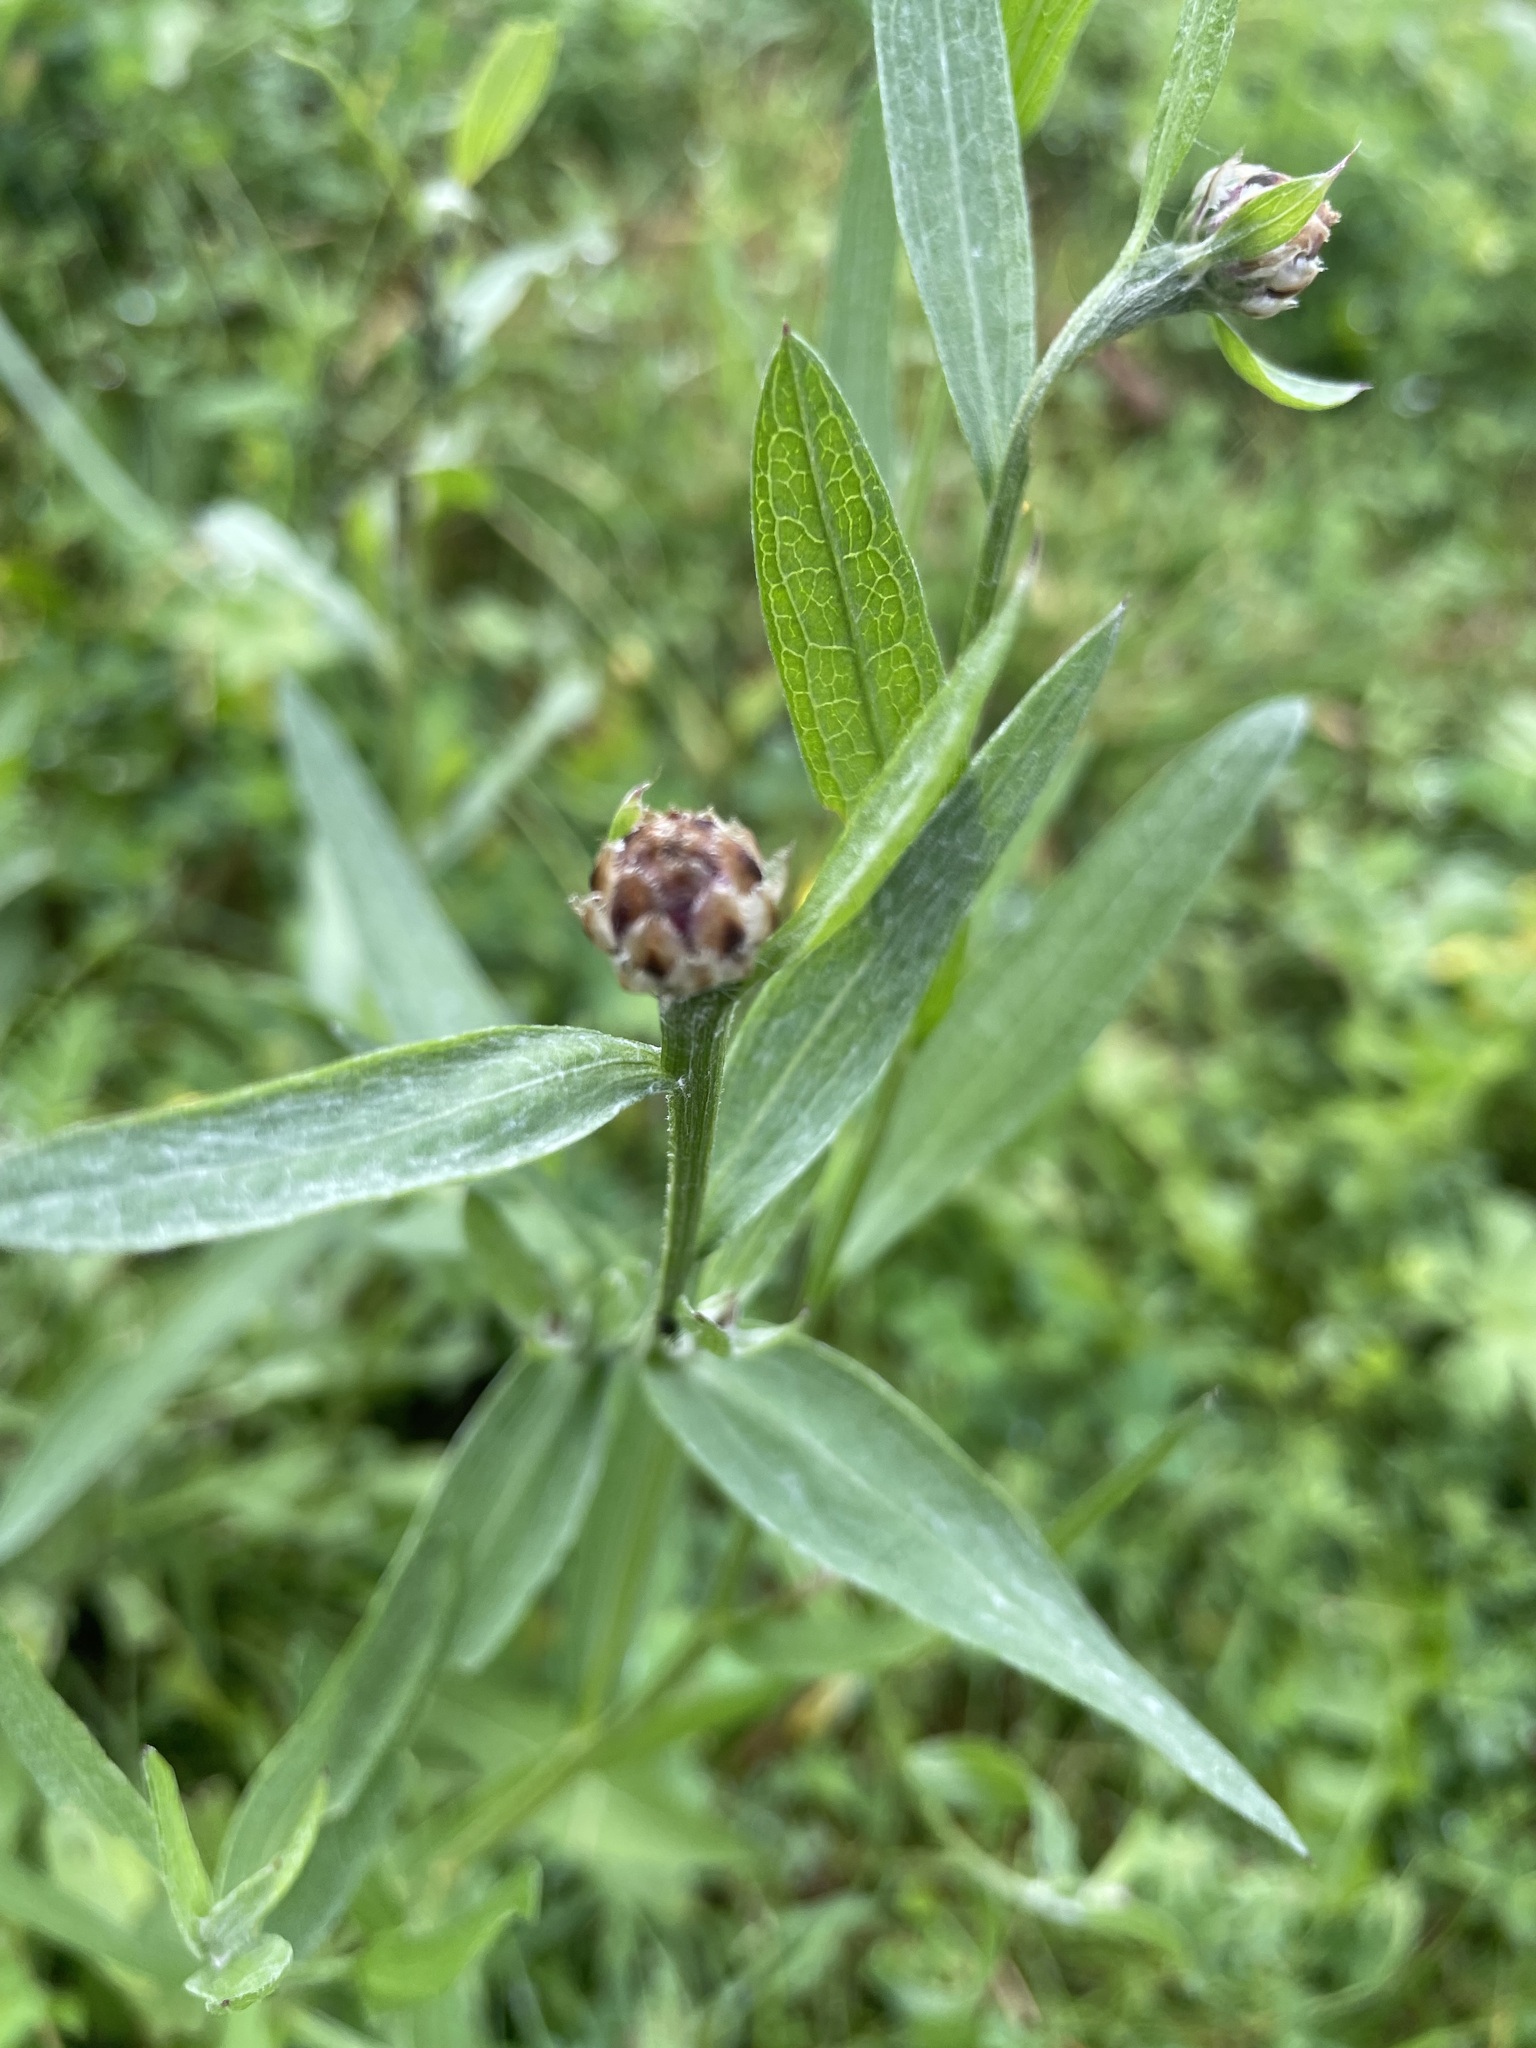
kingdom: Plantae
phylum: Tracheophyta
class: Magnoliopsida
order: Asterales
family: Asteraceae
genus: Centaurea
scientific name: Centaurea jacea
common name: Brown knapweed
